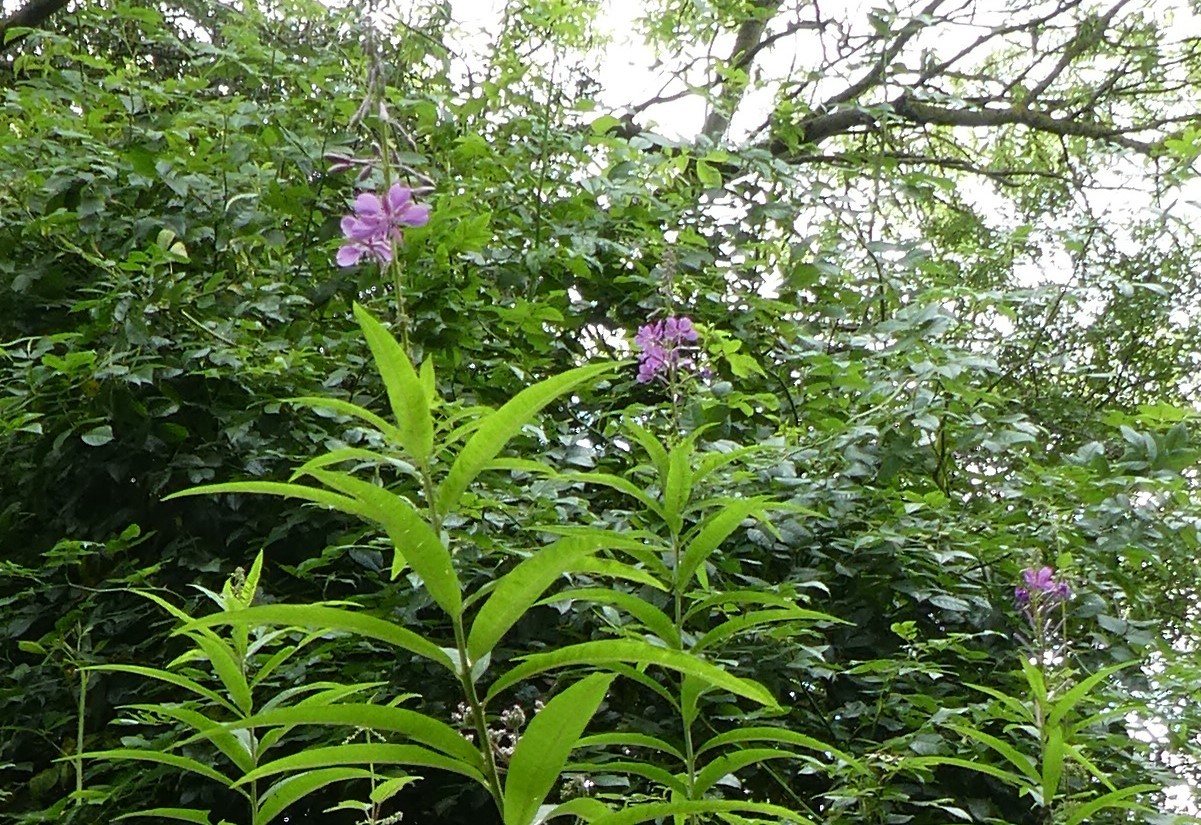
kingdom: Plantae
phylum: Tracheophyta
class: Magnoliopsida
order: Myrtales
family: Onagraceae
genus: Chamaenerion
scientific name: Chamaenerion angustifolium
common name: Fireweed
